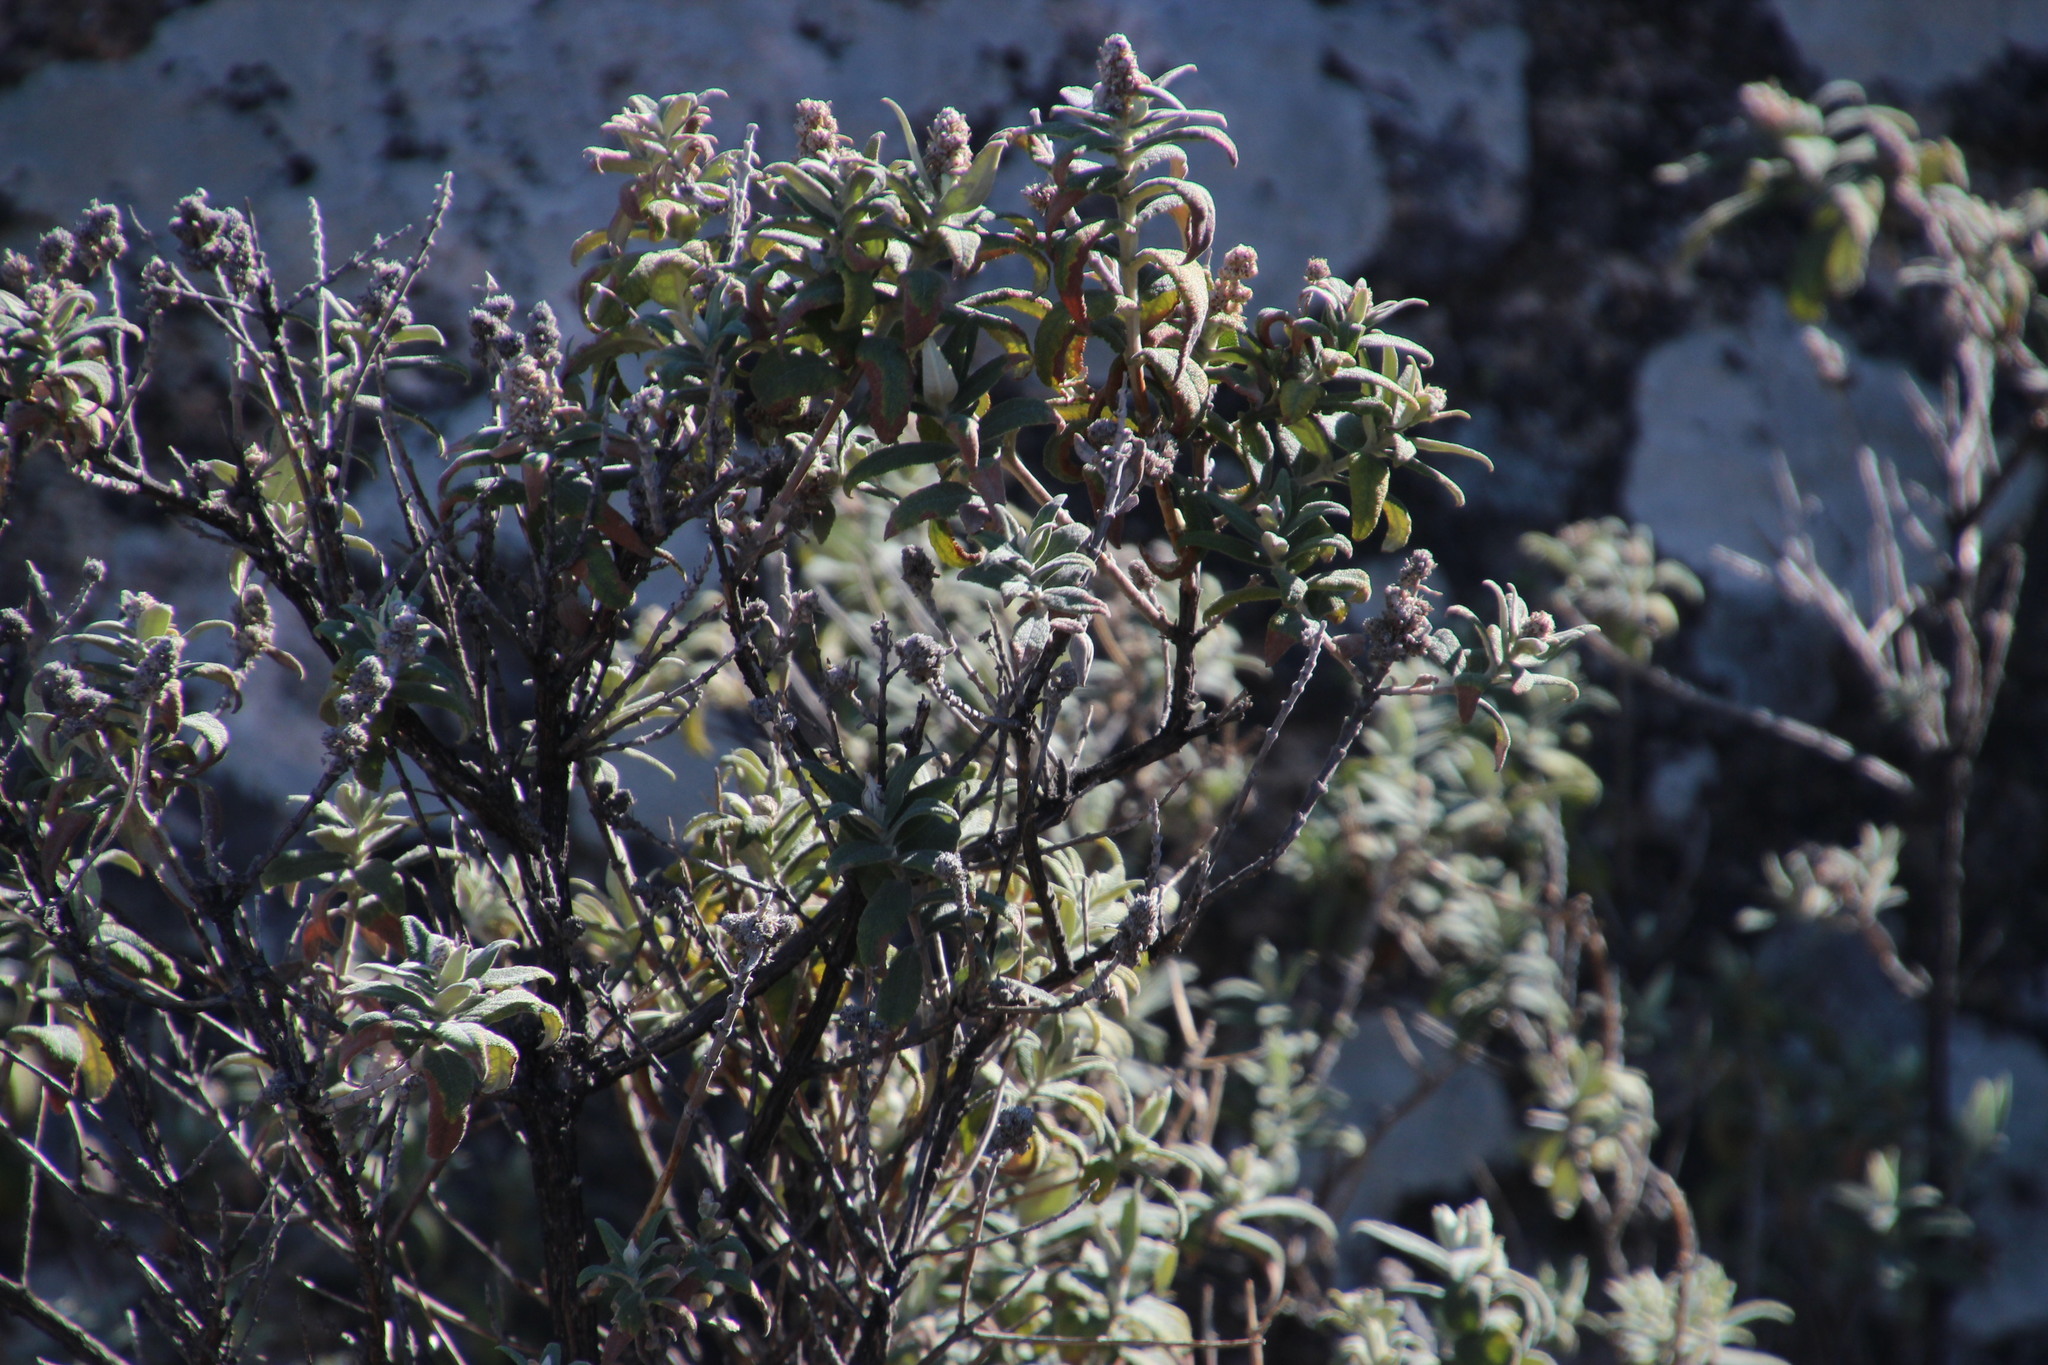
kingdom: Plantae
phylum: Tracheophyta
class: Magnoliopsida
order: Lamiales
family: Scrophulariaceae
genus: Buddleja
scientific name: Buddleja salviifolia
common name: Sagewood
